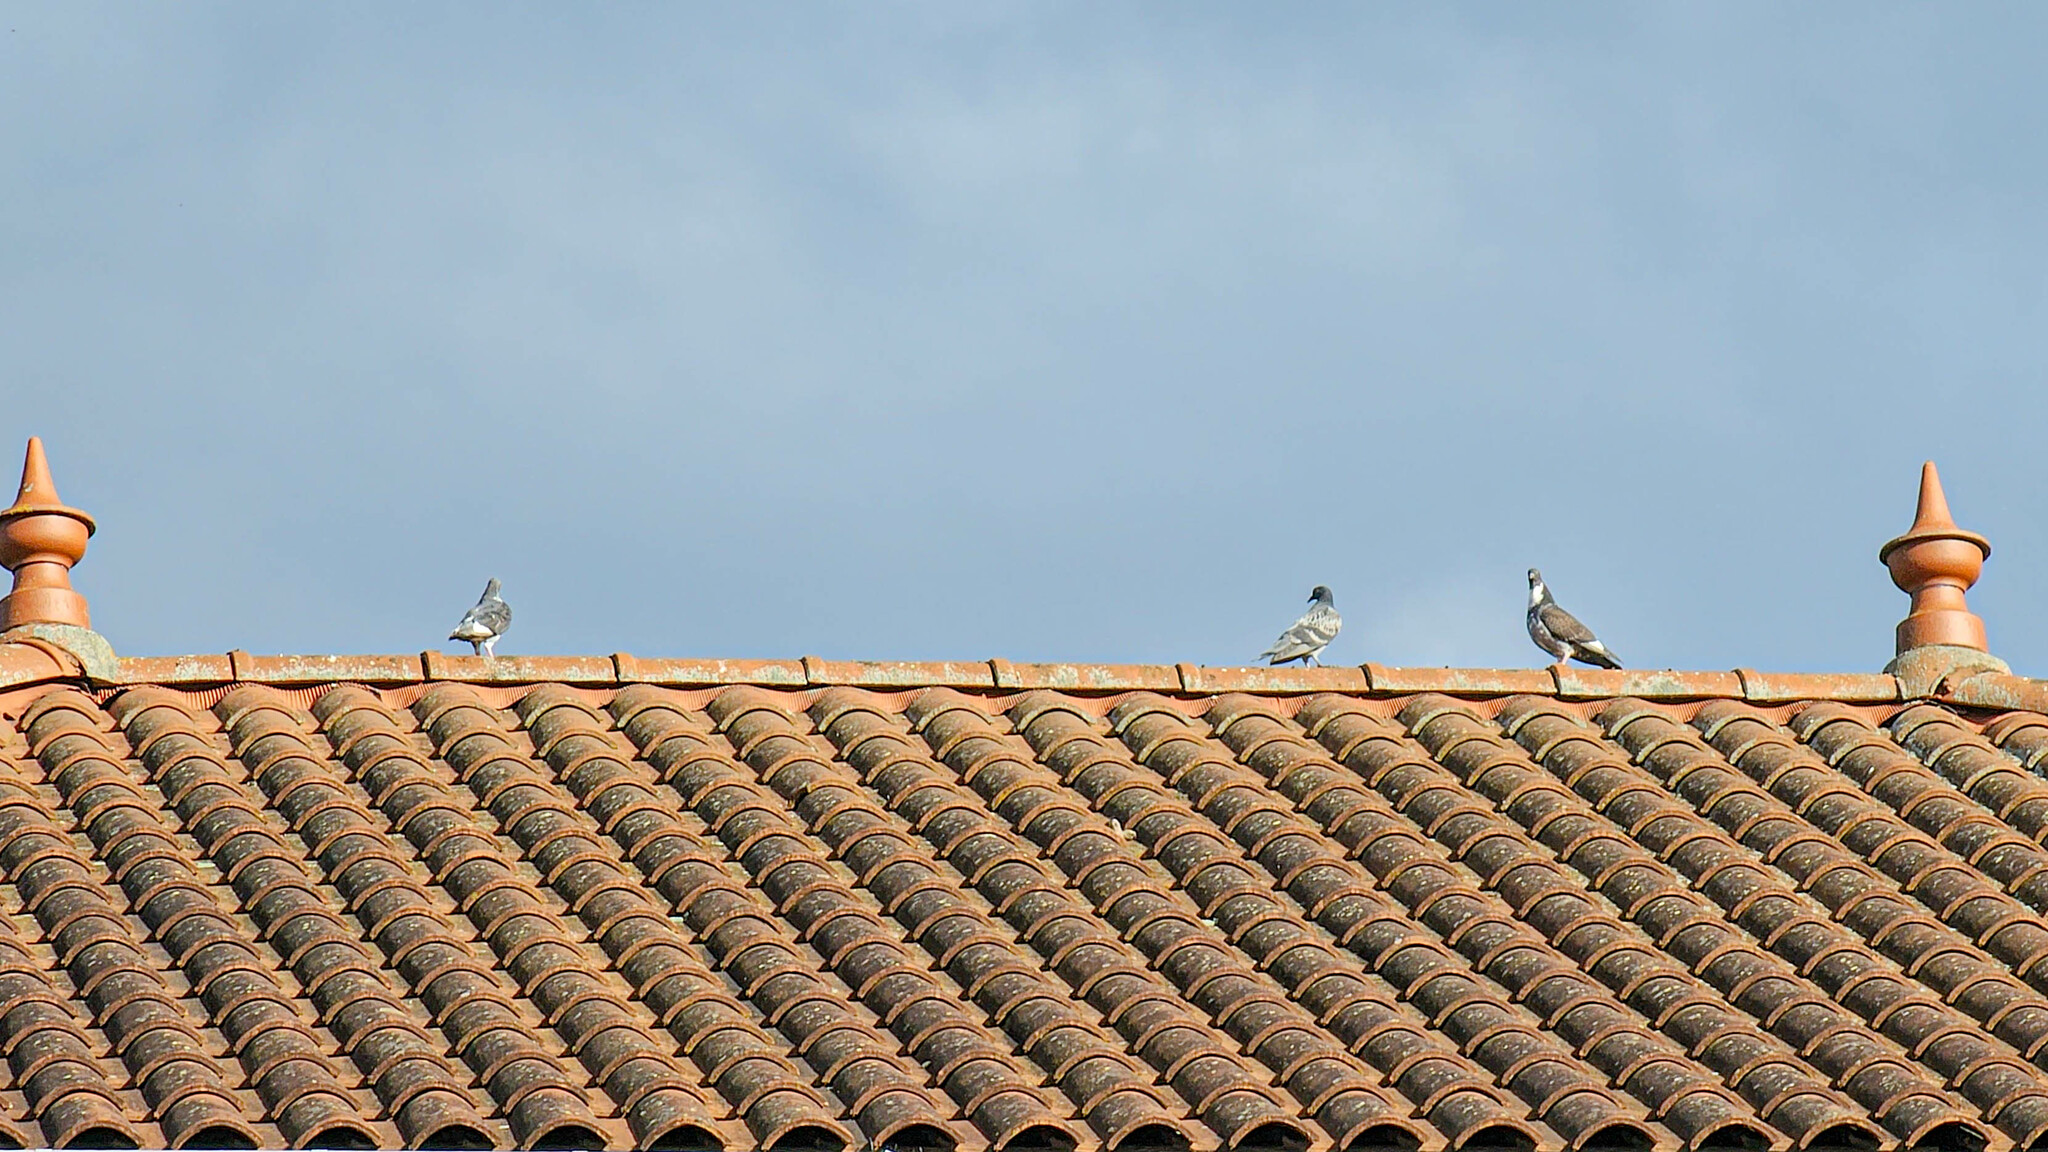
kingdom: Animalia
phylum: Chordata
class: Aves
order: Columbiformes
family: Columbidae
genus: Columba
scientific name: Columba livia
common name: Rock pigeon
